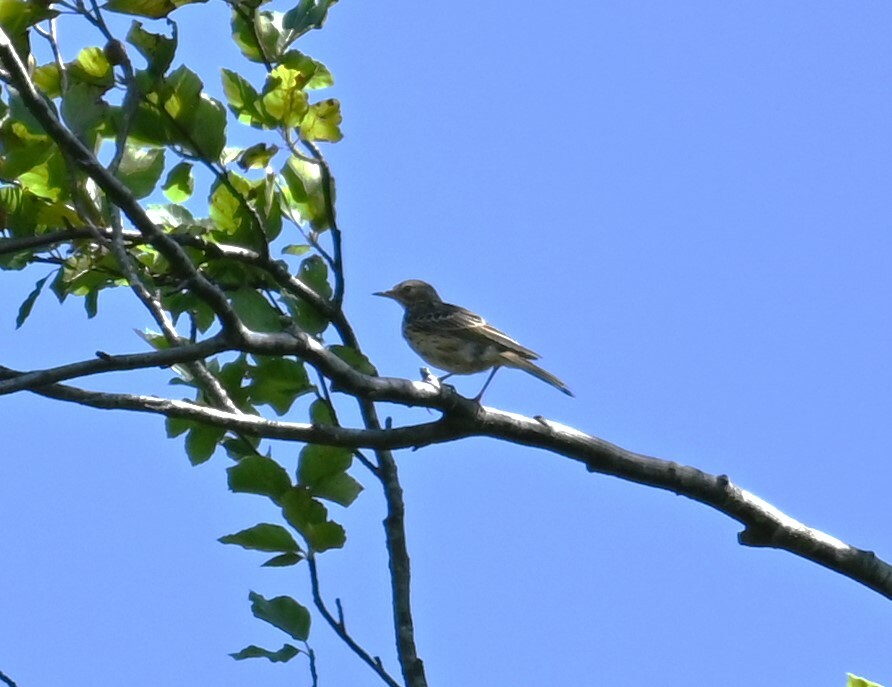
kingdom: Animalia
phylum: Chordata
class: Aves
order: Passeriformes
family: Motacillidae
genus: Anthus
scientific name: Anthus trivialis
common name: Tree pipit
